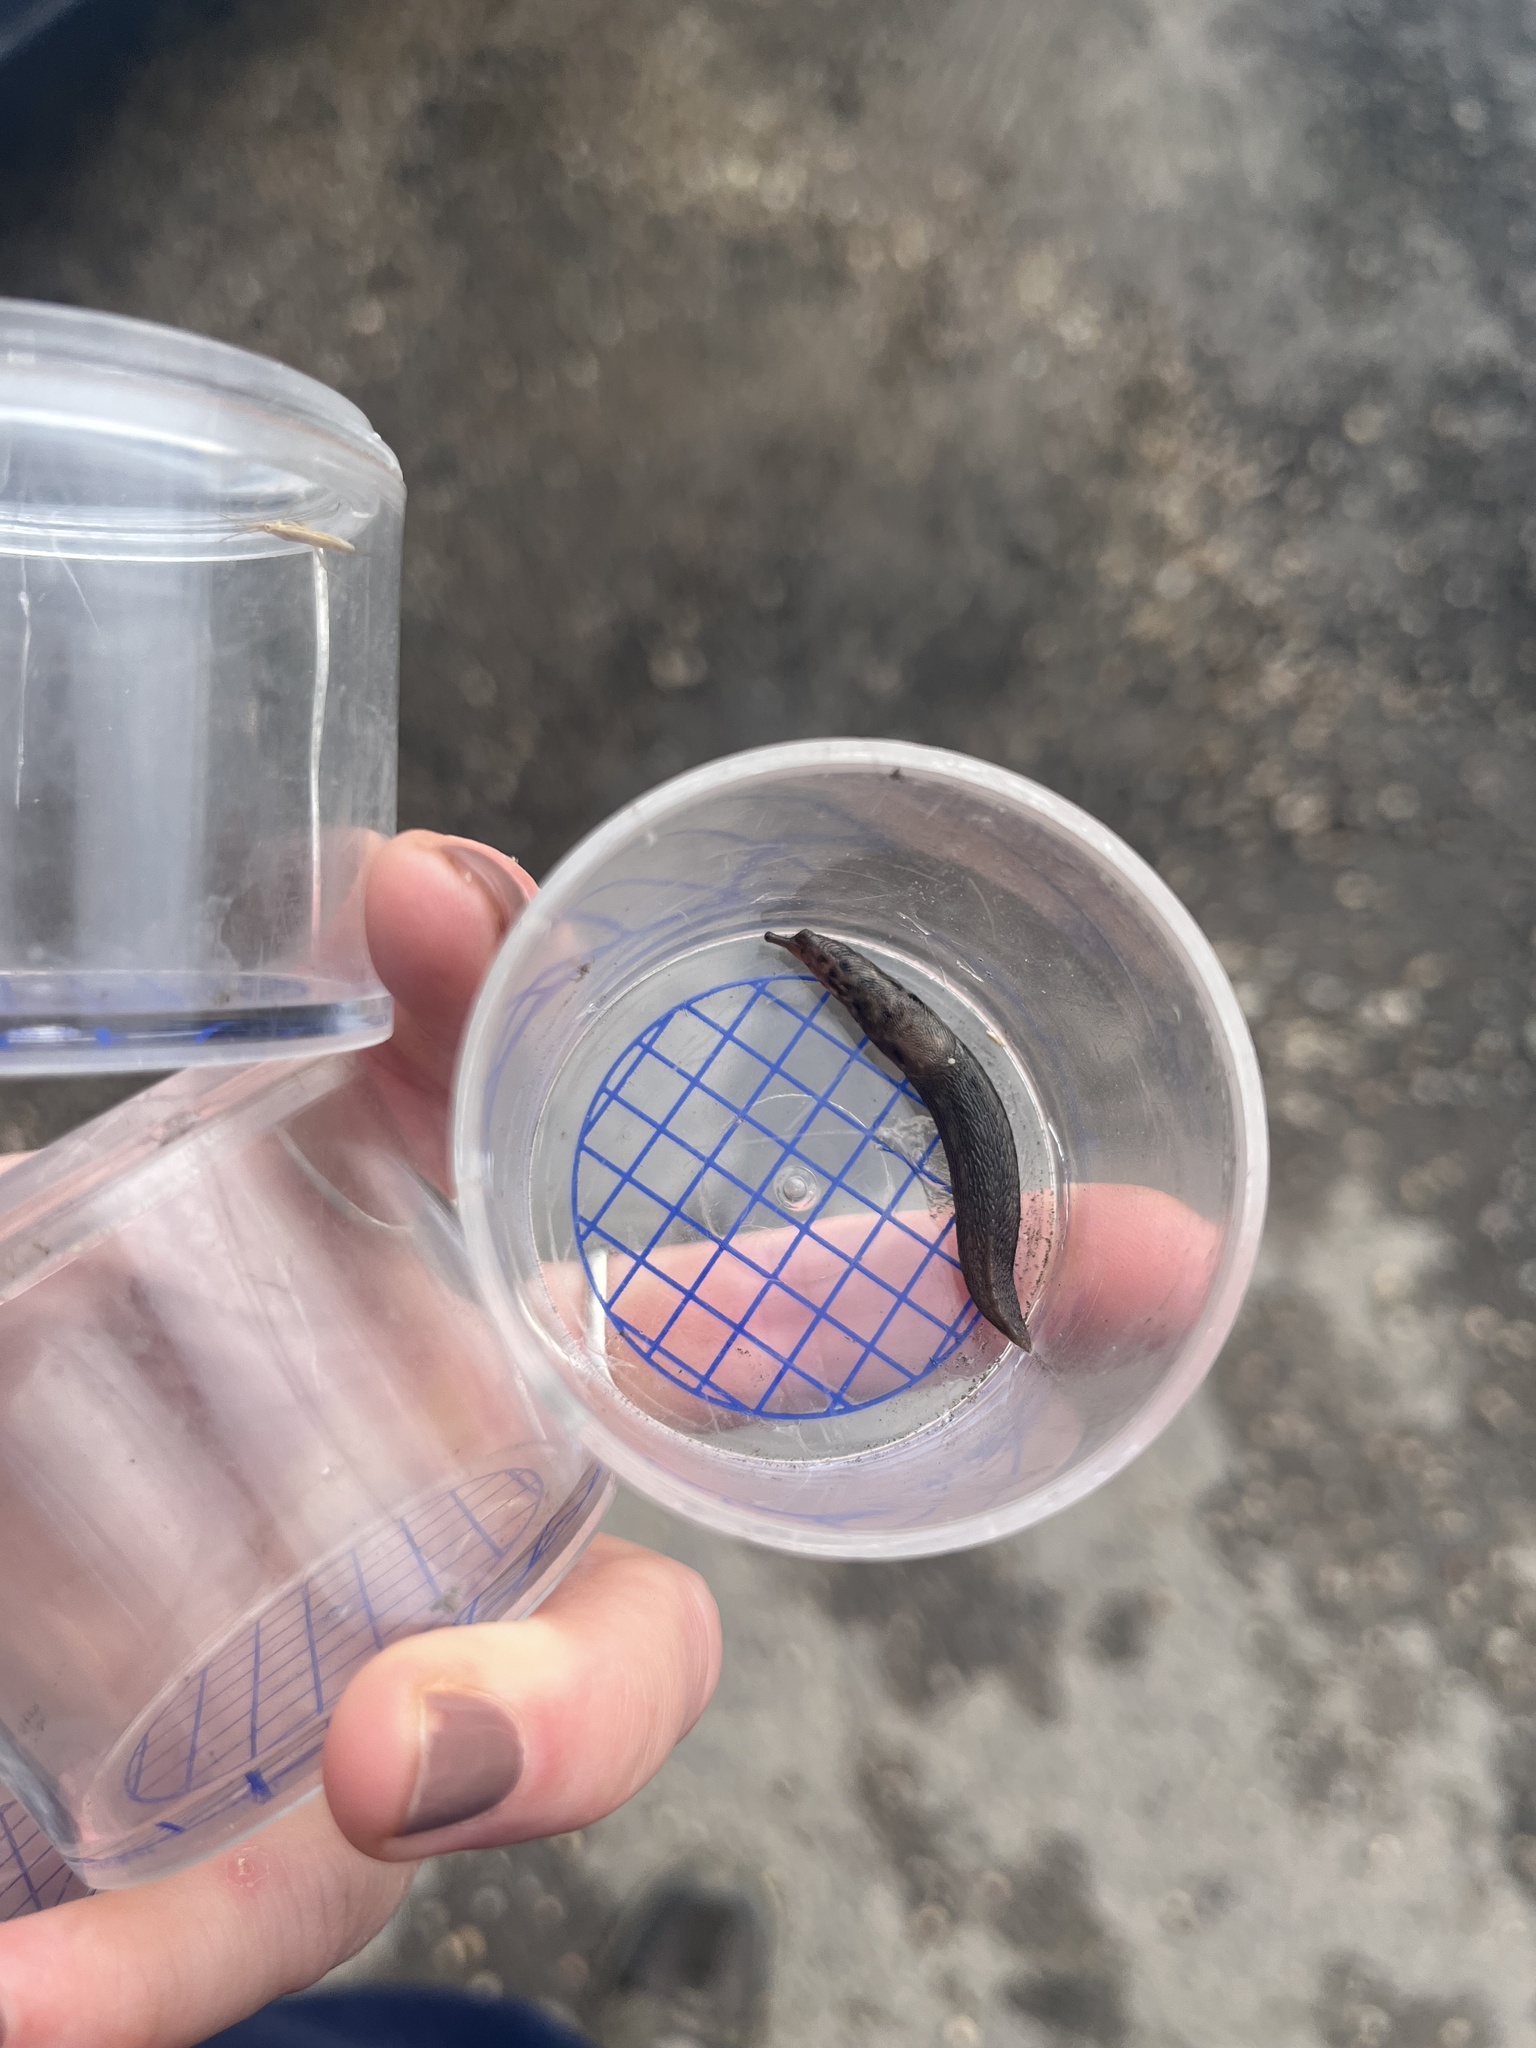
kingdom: Animalia
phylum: Mollusca
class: Gastropoda
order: Stylommatophora
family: Limacidae
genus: Limax
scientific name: Limax maximus
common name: Great grey slug
